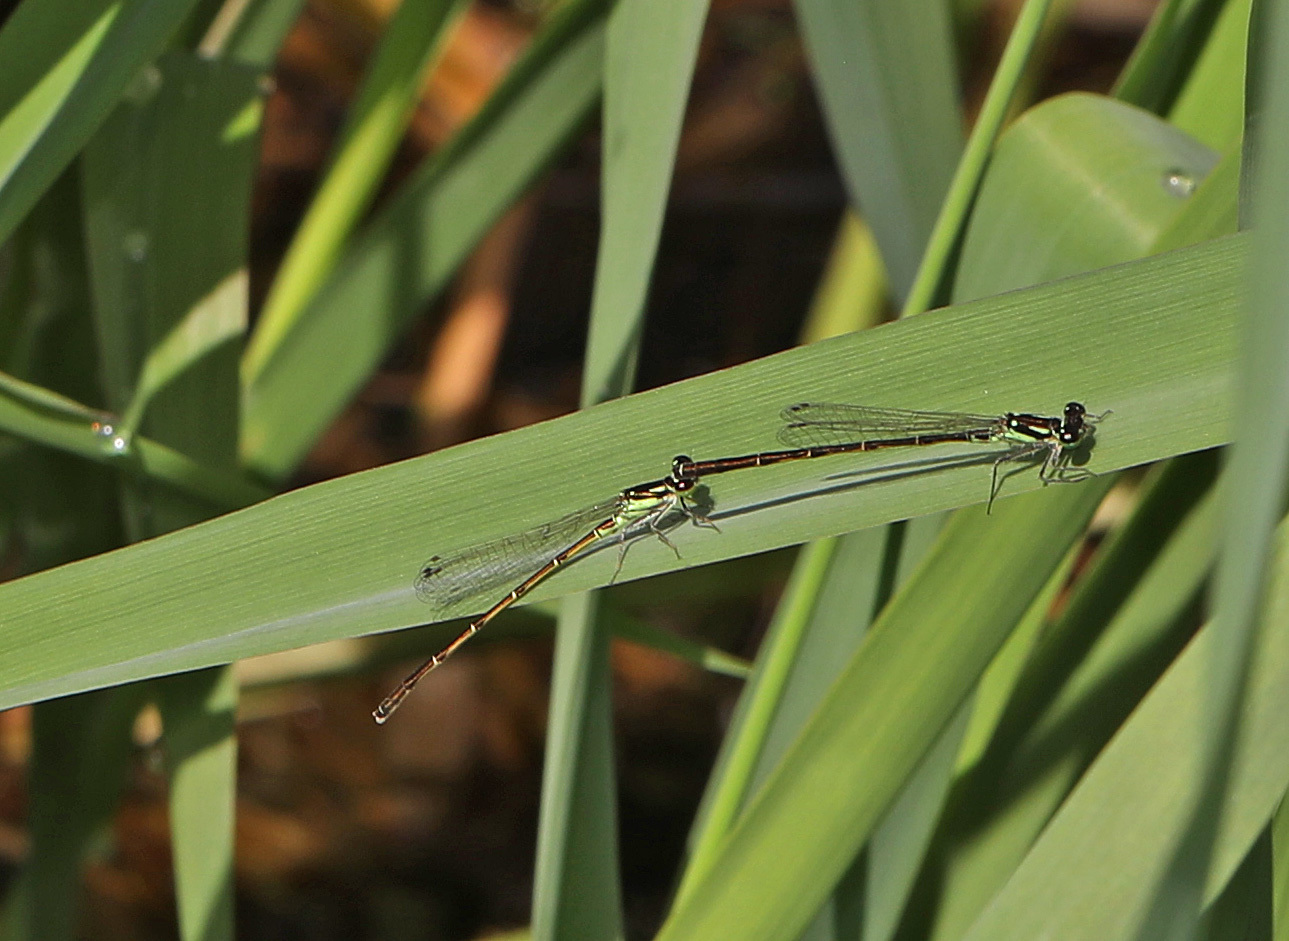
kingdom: Animalia
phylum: Arthropoda
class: Insecta
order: Odonata
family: Coenagrionidae
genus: Ischnura
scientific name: Ischnura posita
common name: Fragile forktail
